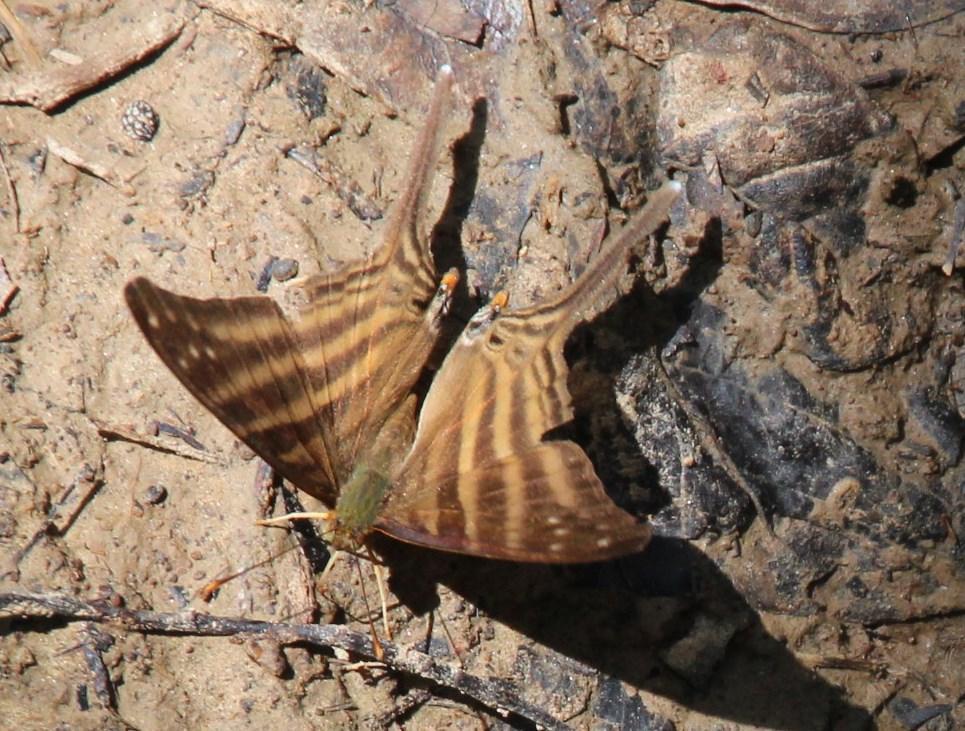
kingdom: Animalia
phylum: Arthropoda
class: Insecta
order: Lepidoptera
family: Nymphalidae
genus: Marpesia
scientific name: Marpesia chiron
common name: Many-banded daggerwing
